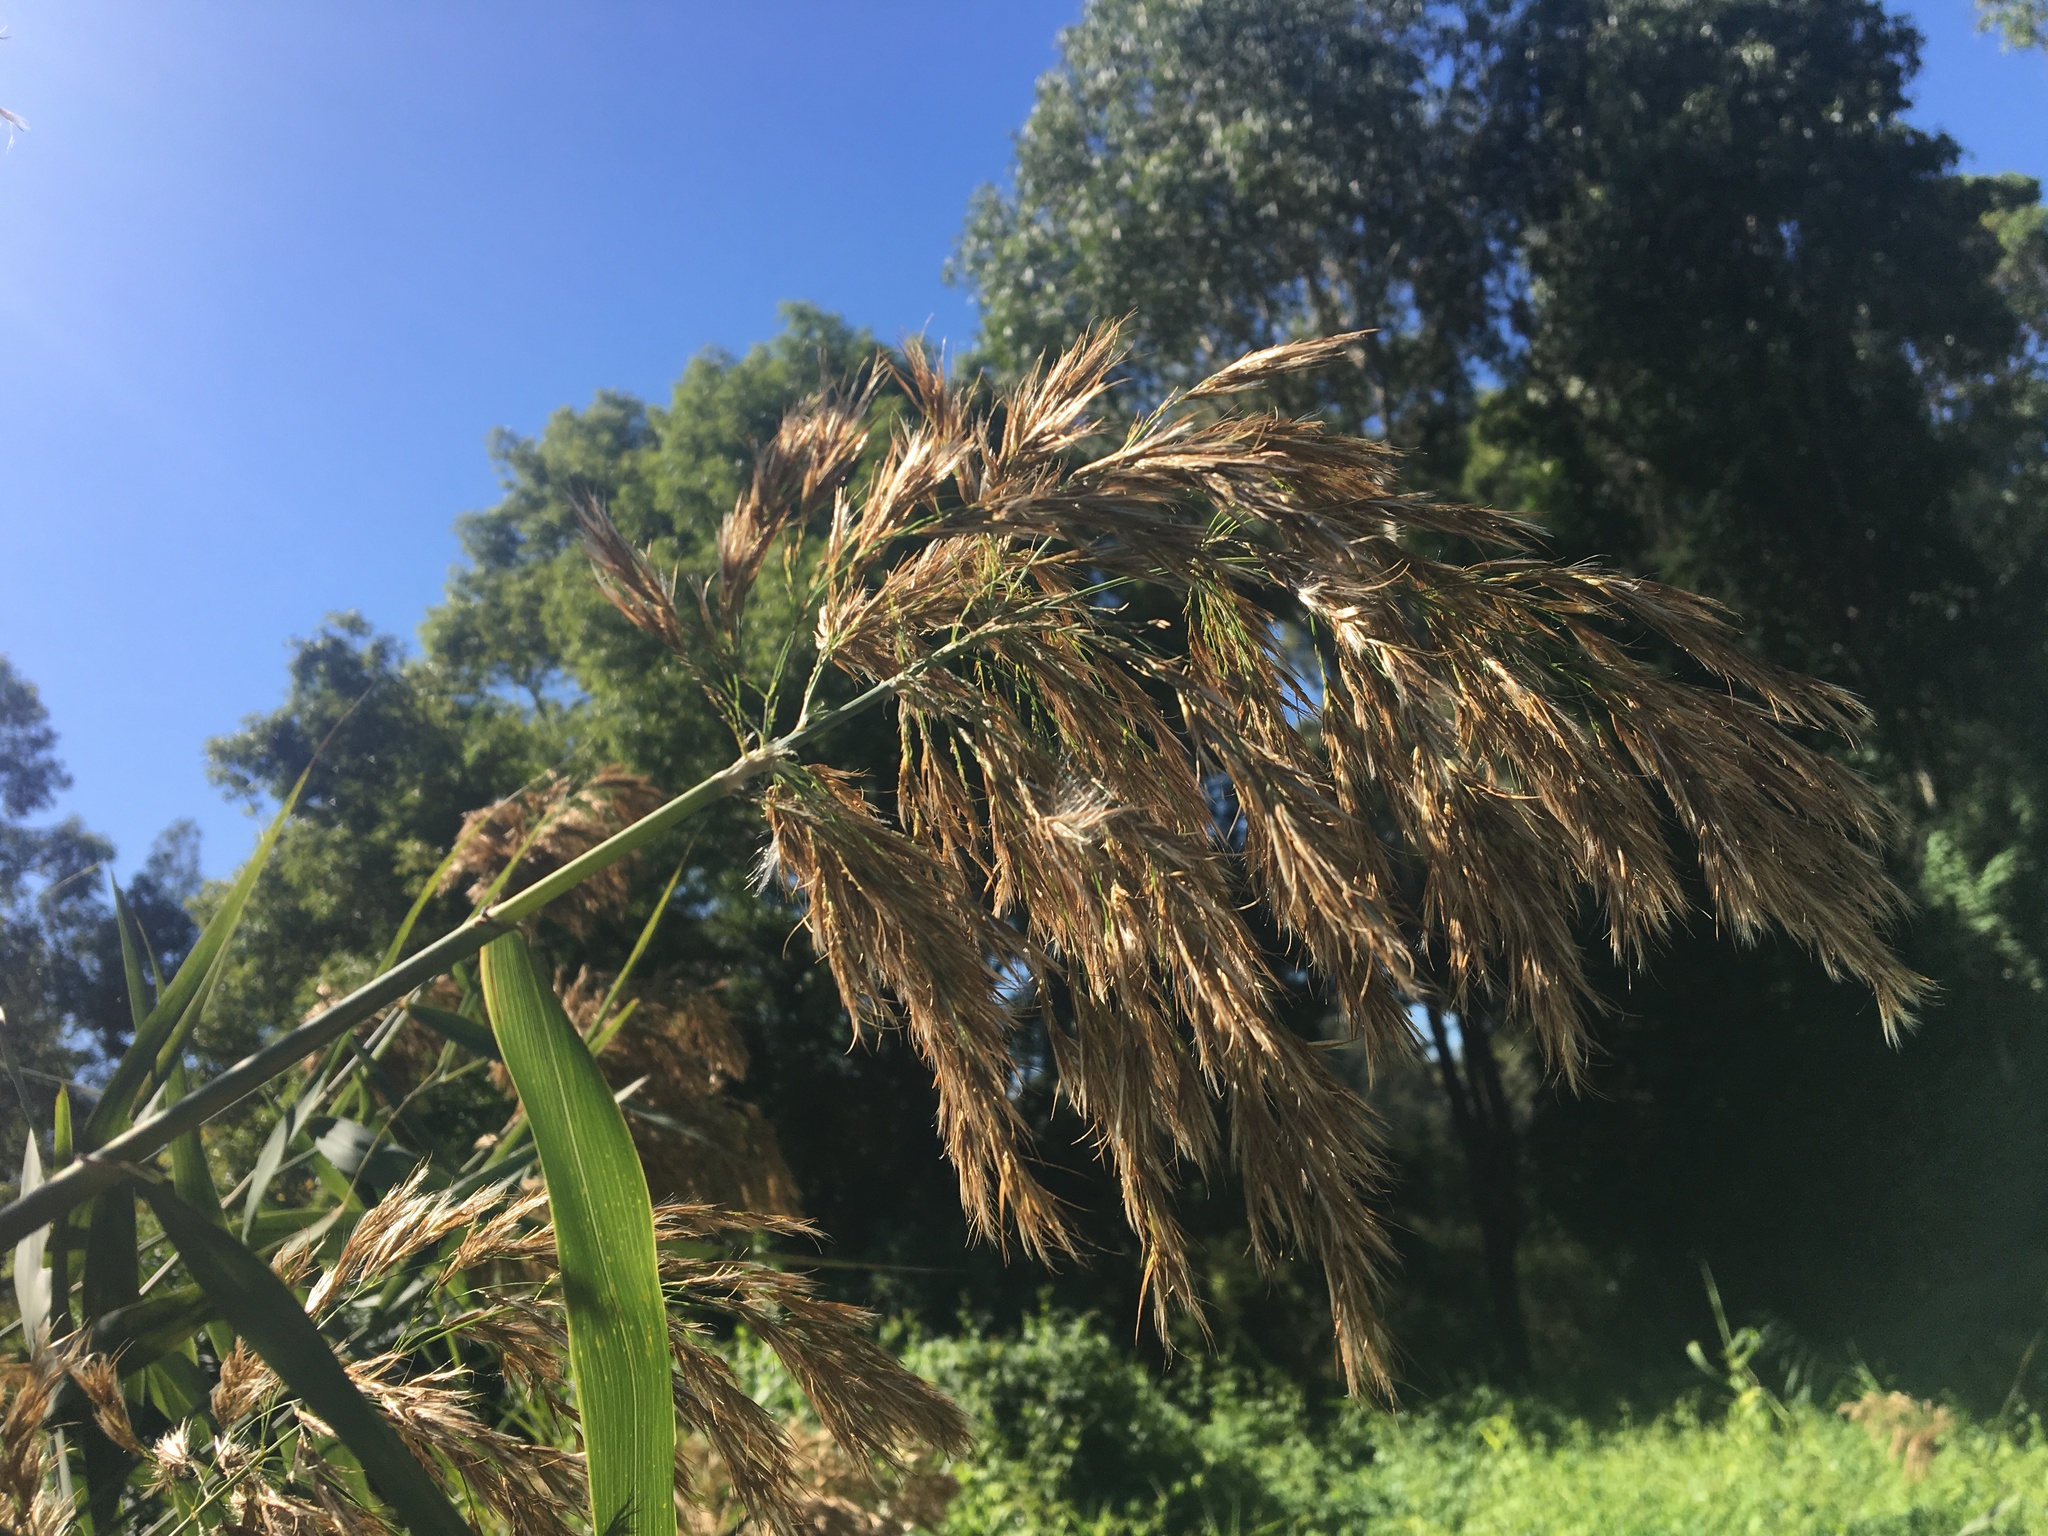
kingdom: Plantae
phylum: Tracheophyta
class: Liliopsida
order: Poales
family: Poaceae
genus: Phragmites
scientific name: Phragmites australis
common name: Common reed
